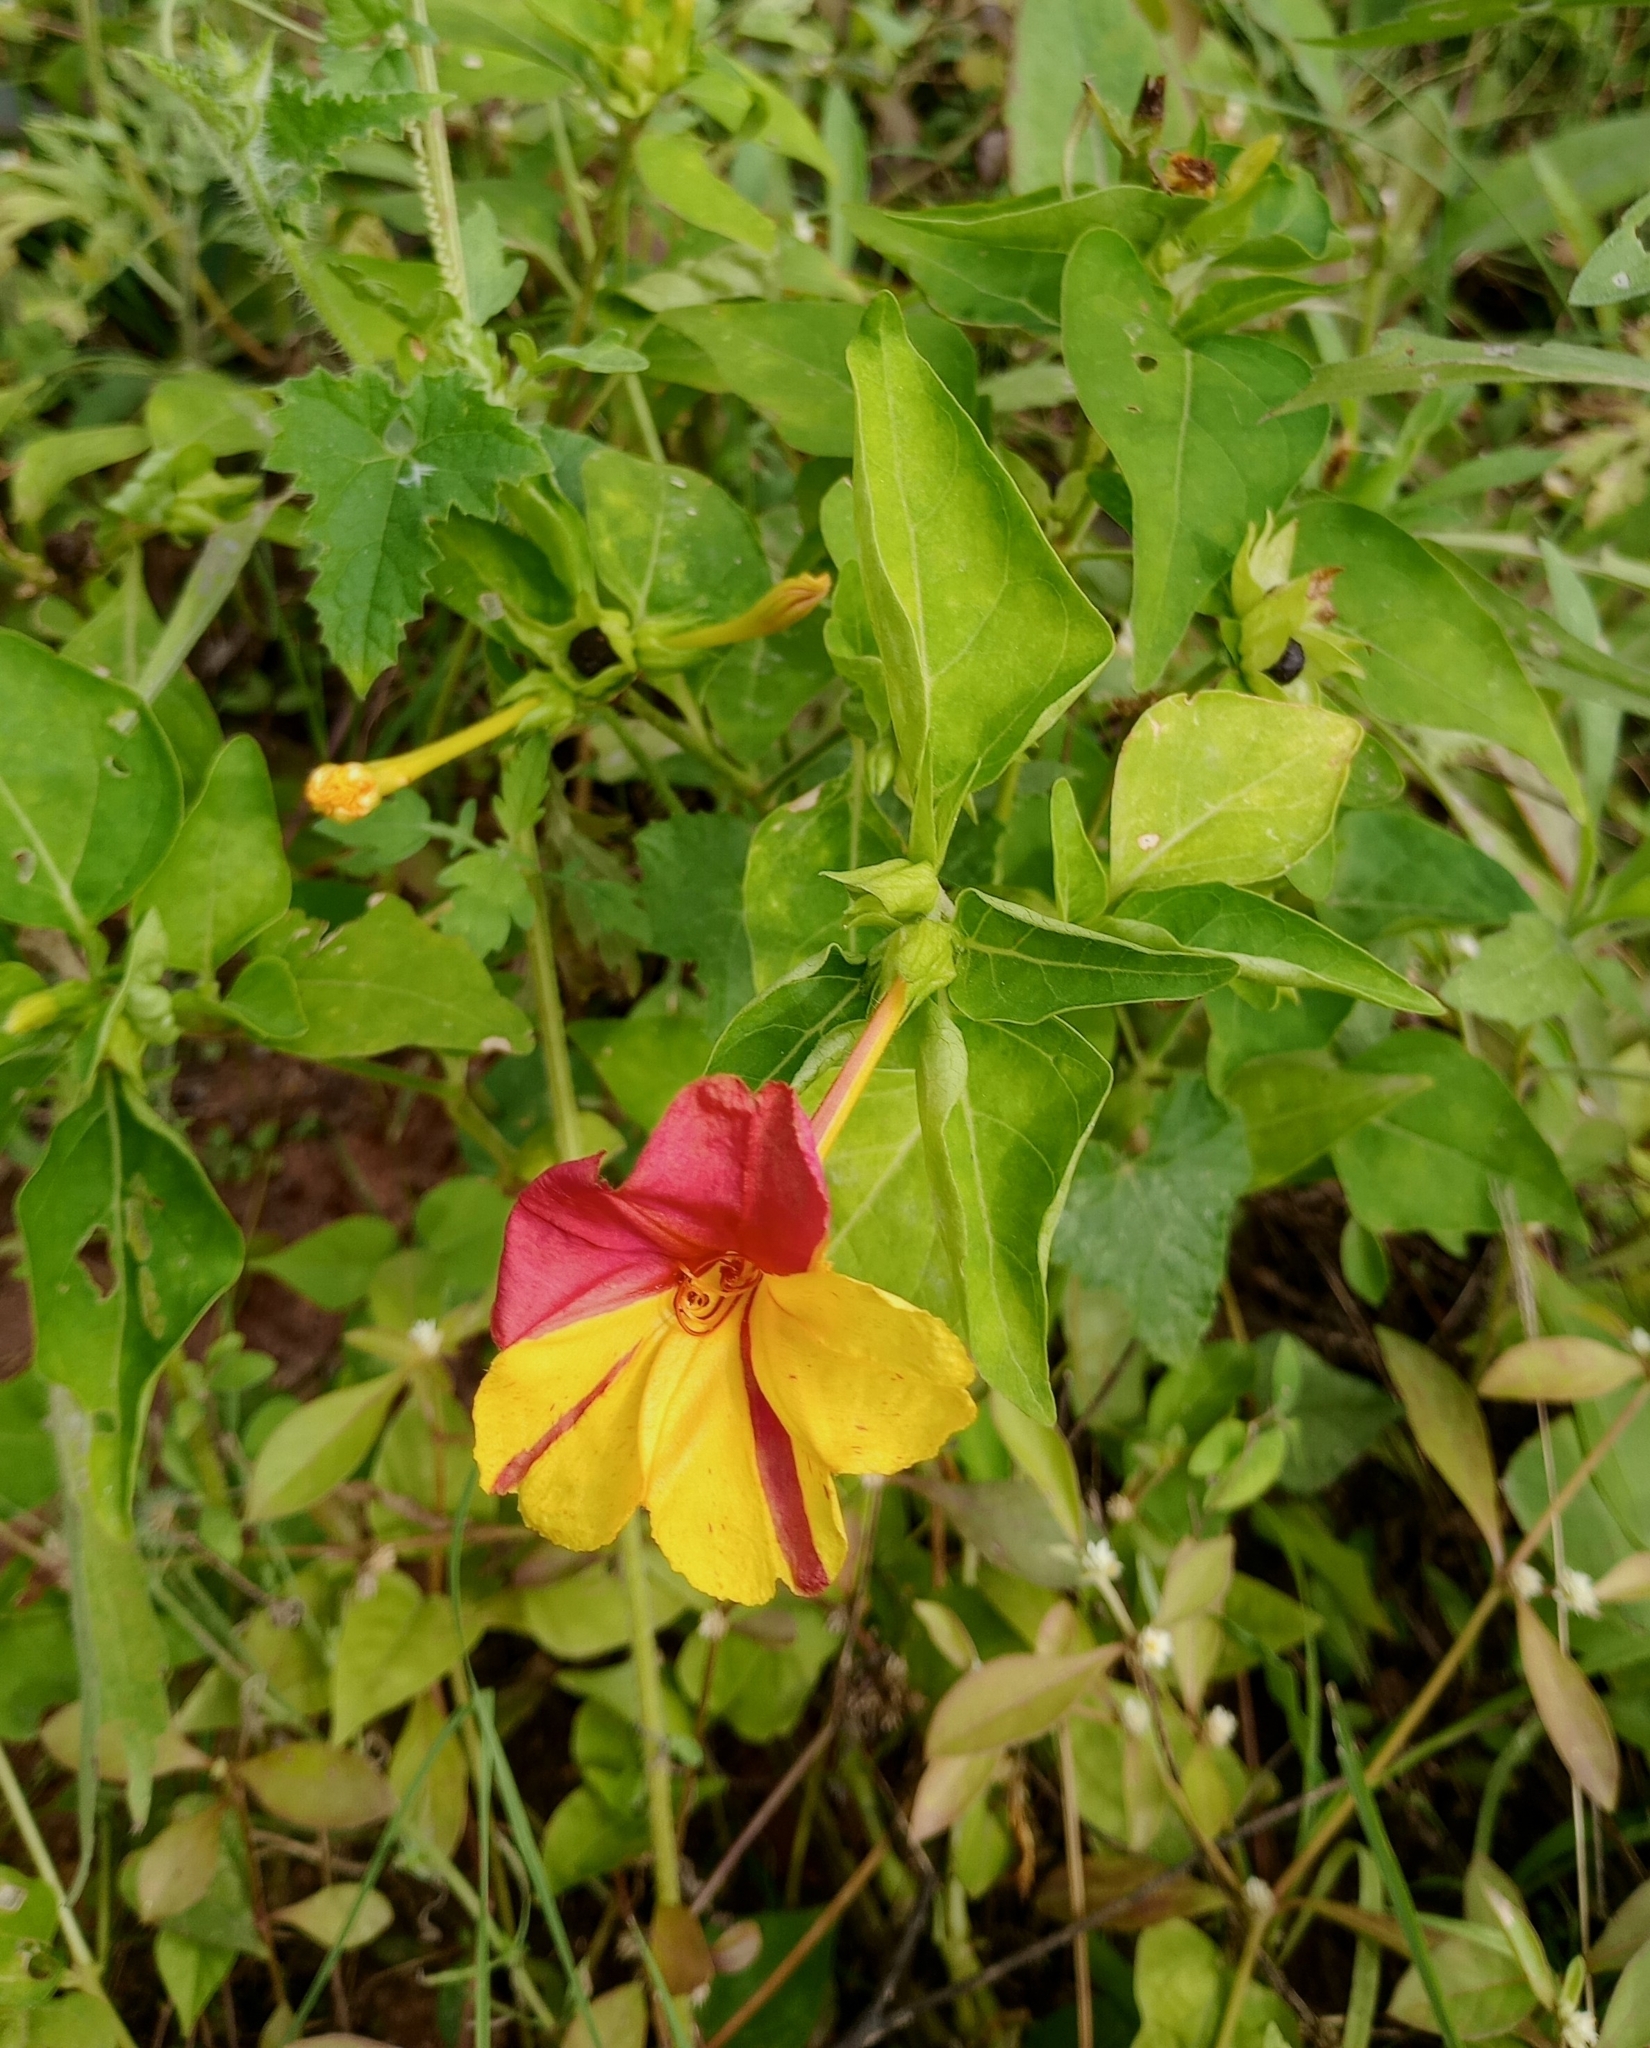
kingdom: Plantae
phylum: Tracheophyta
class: Magnoliopsida
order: Caryophyllales
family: Nyctaginaceae
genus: Mirabilis
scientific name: Mirabilis jalapa
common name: Marvel-of-peru
